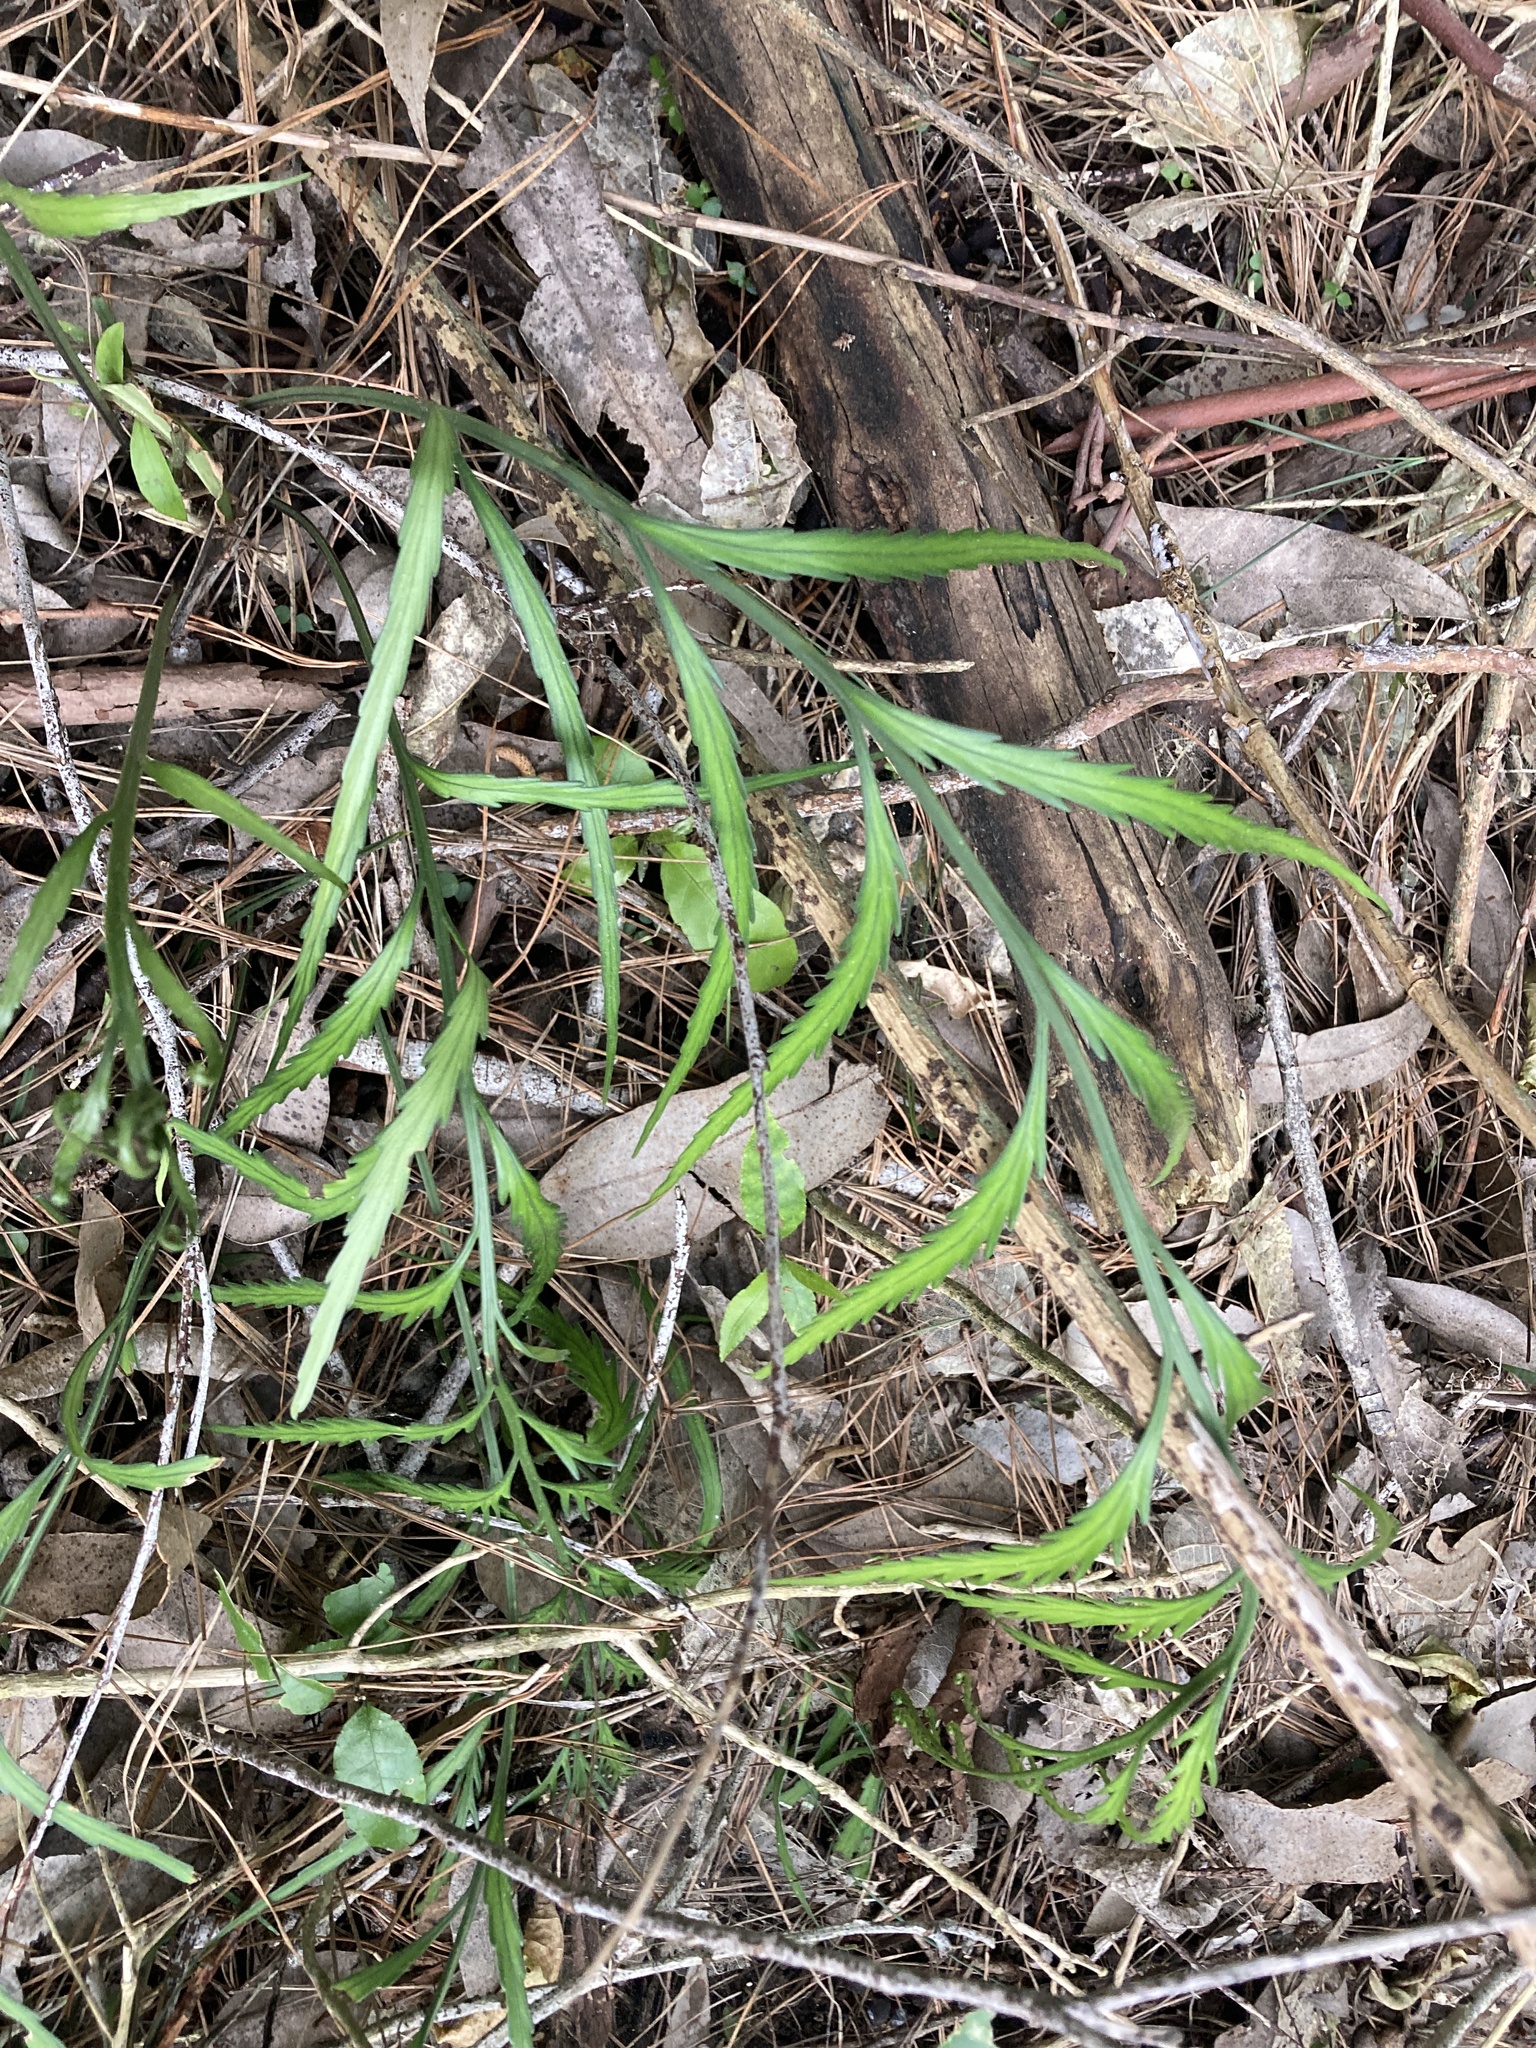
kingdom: Plantae
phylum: Tracheophyta
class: Polypodiopsida
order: Polypodiales
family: Aspleniaceae
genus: Asplenium
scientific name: Asplenium flaccidum
